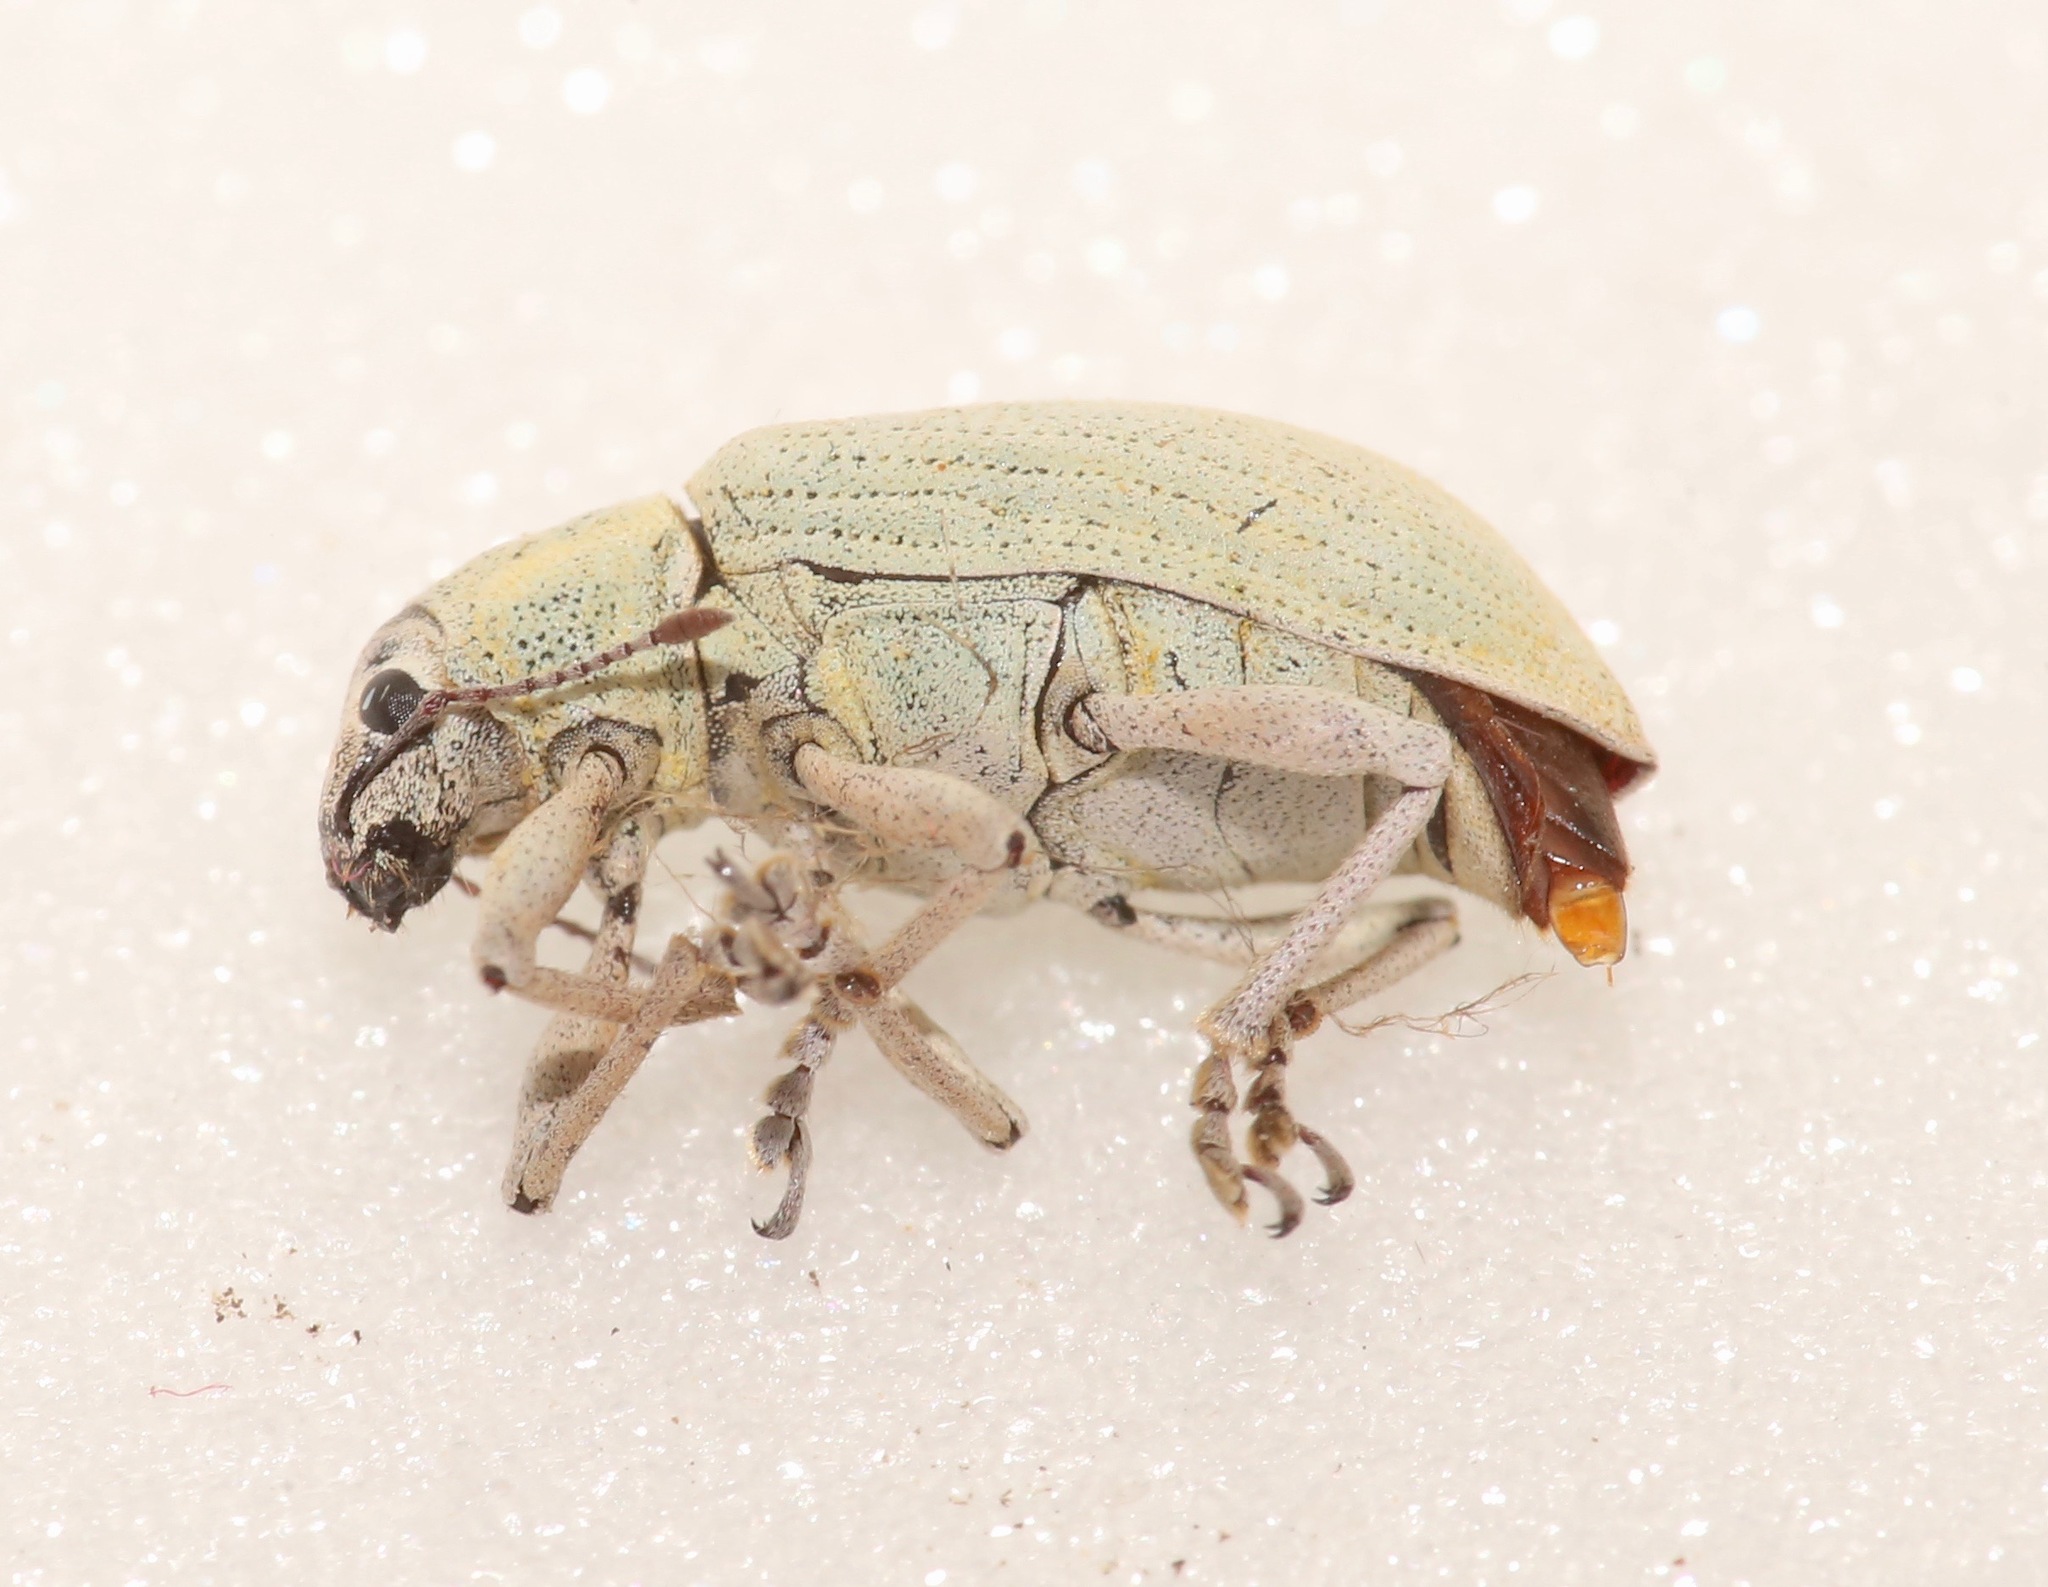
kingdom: Animalia
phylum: Arthropoda
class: Insecta
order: Coleoptera
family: Curculionidae
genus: Pachnaeus
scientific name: Pachnaeus opalus
